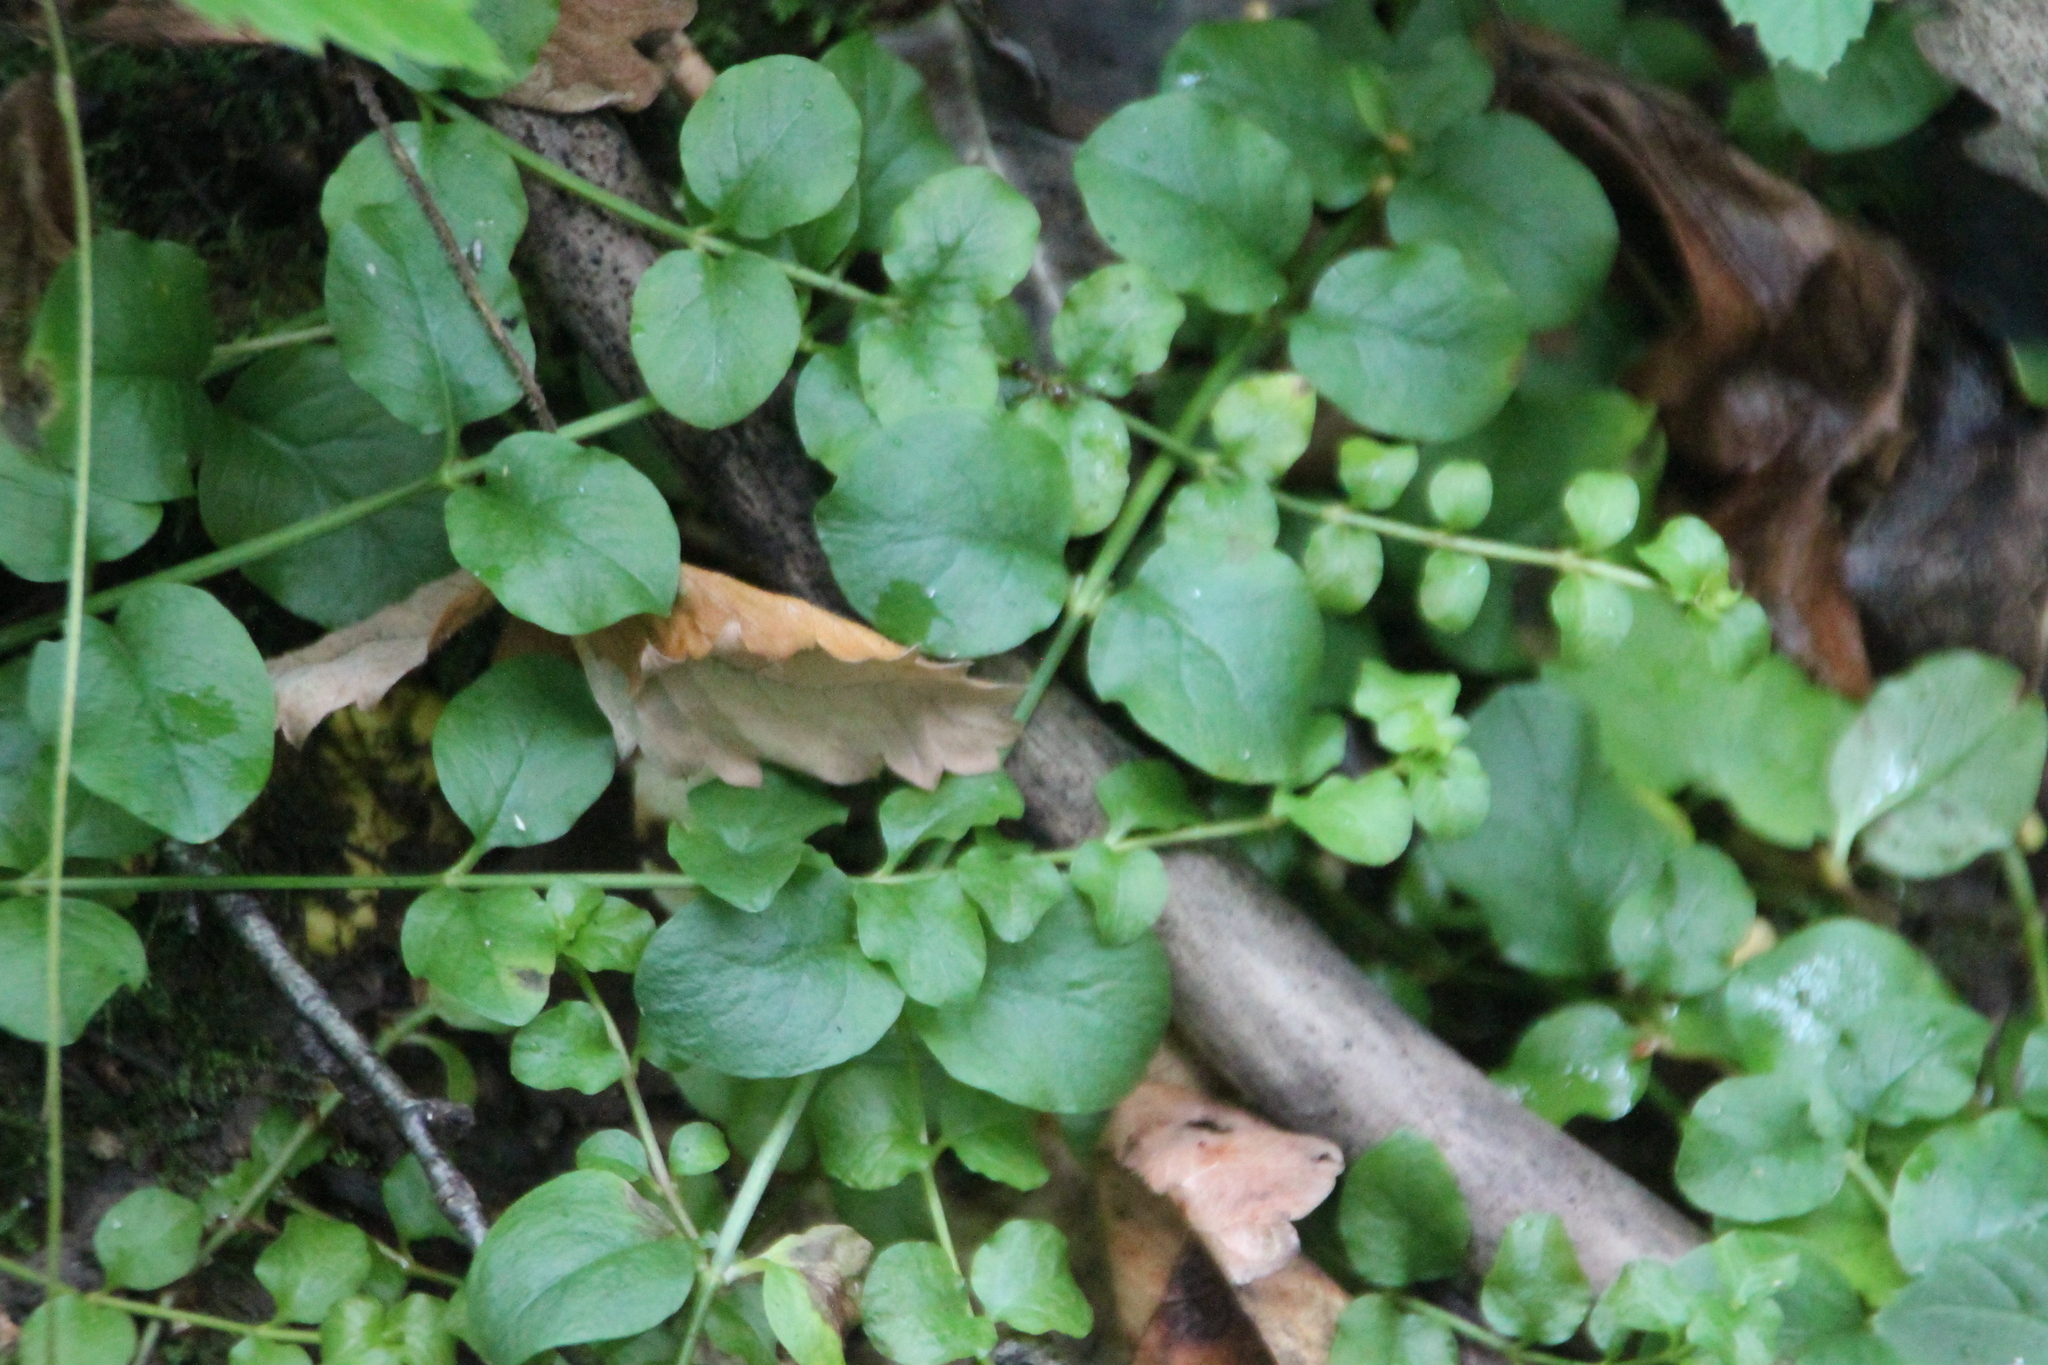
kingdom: Plantae
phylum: Tracheophyta
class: Magnoliopsida
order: Ericales
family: Primulaceae
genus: Lysimachia
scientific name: Lysimachia nummularia
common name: Moneywort
